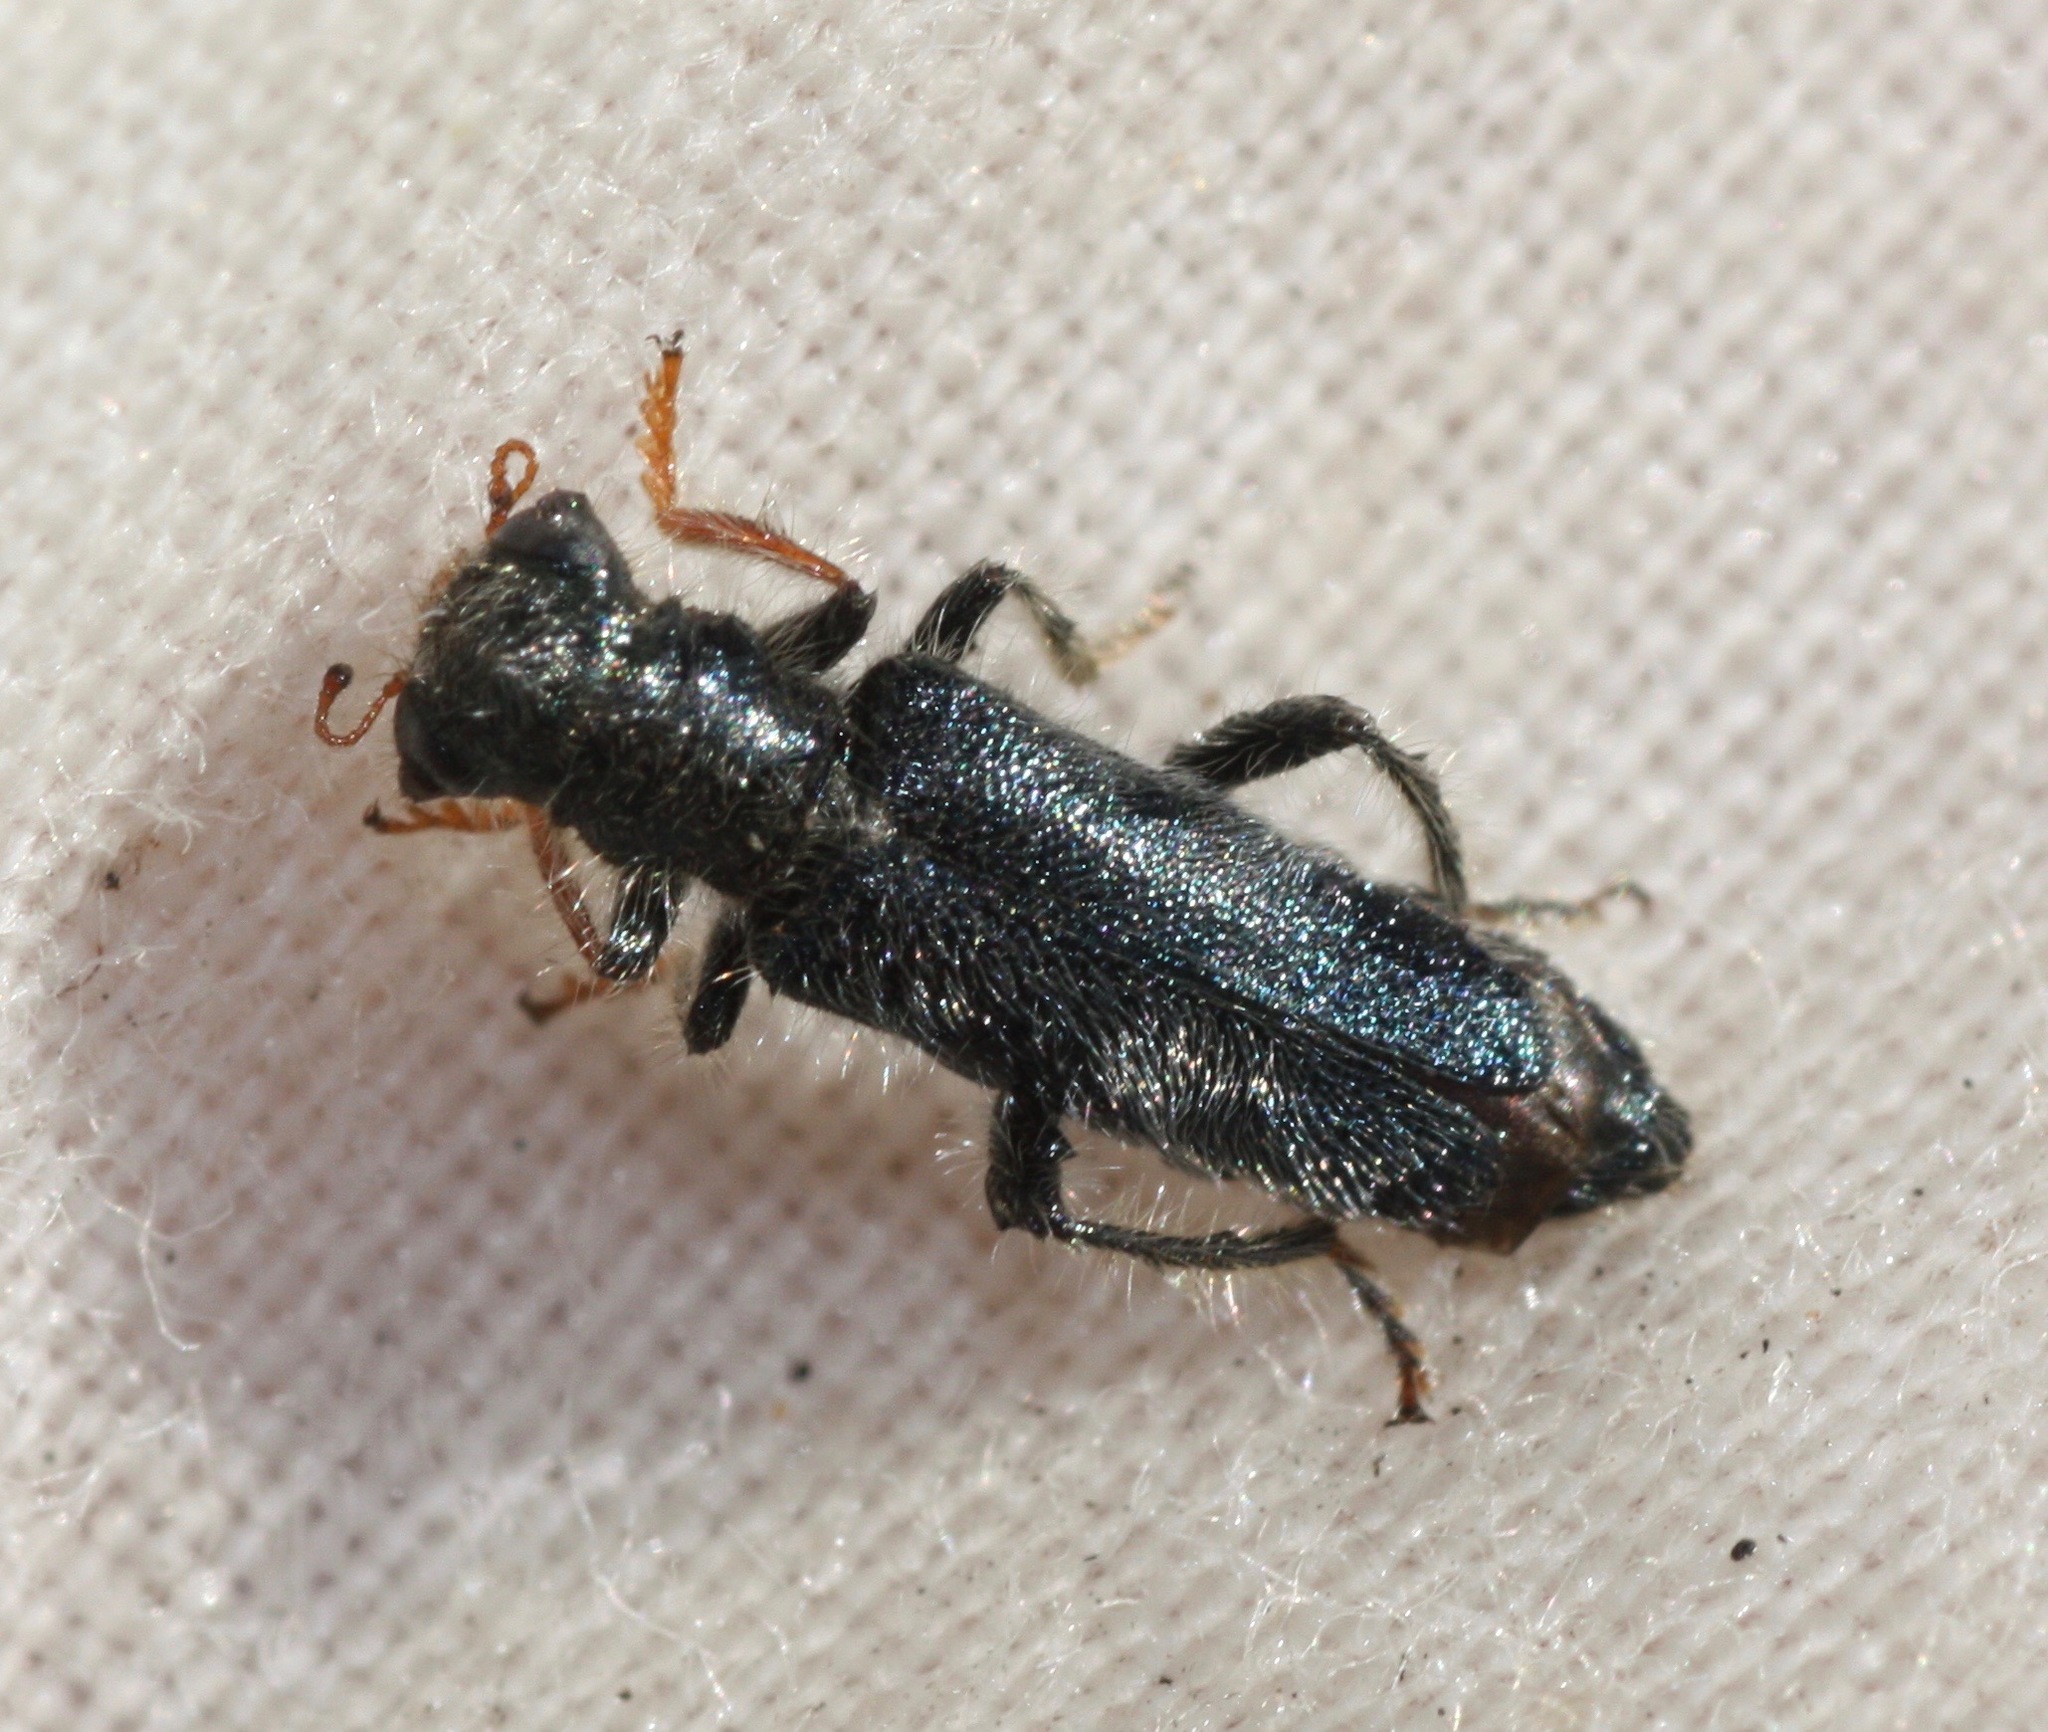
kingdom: Animalia
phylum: Arthropoda
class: Insecta
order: Coleoptera
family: Cleridae
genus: Phyllobaenus
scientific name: Phyllobaenus longus
